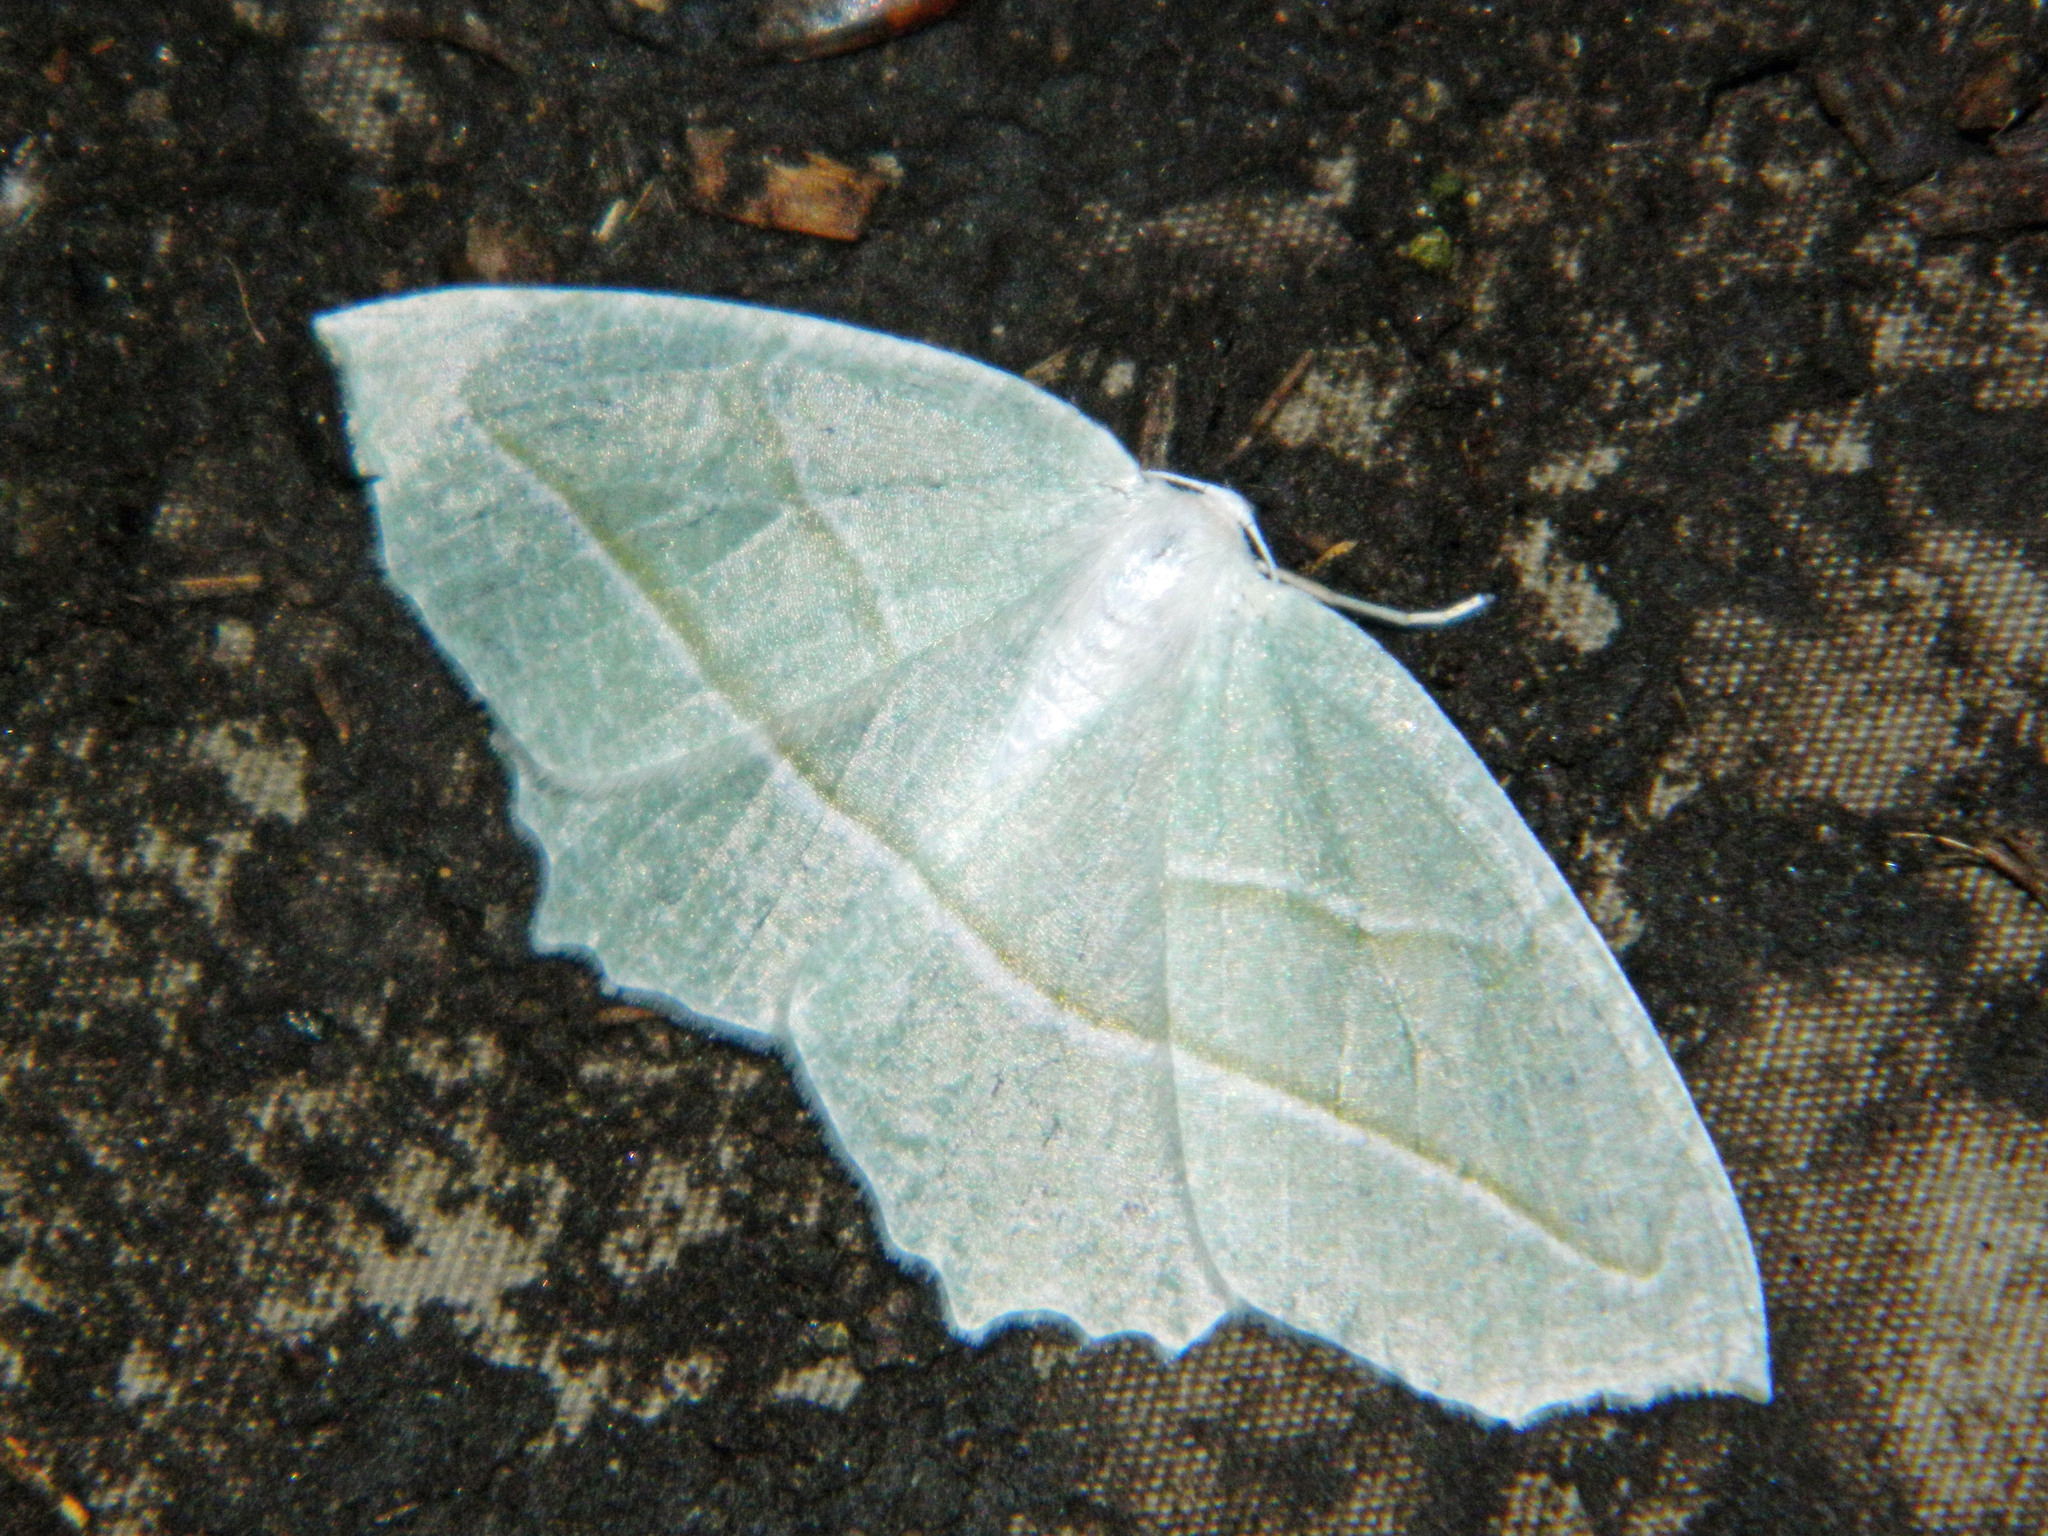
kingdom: Animalia
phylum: Arthropoda
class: Insecta
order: Lepidoptera
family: Geometridae
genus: Campaea
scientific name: Campaea perlata
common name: Fringed looper
